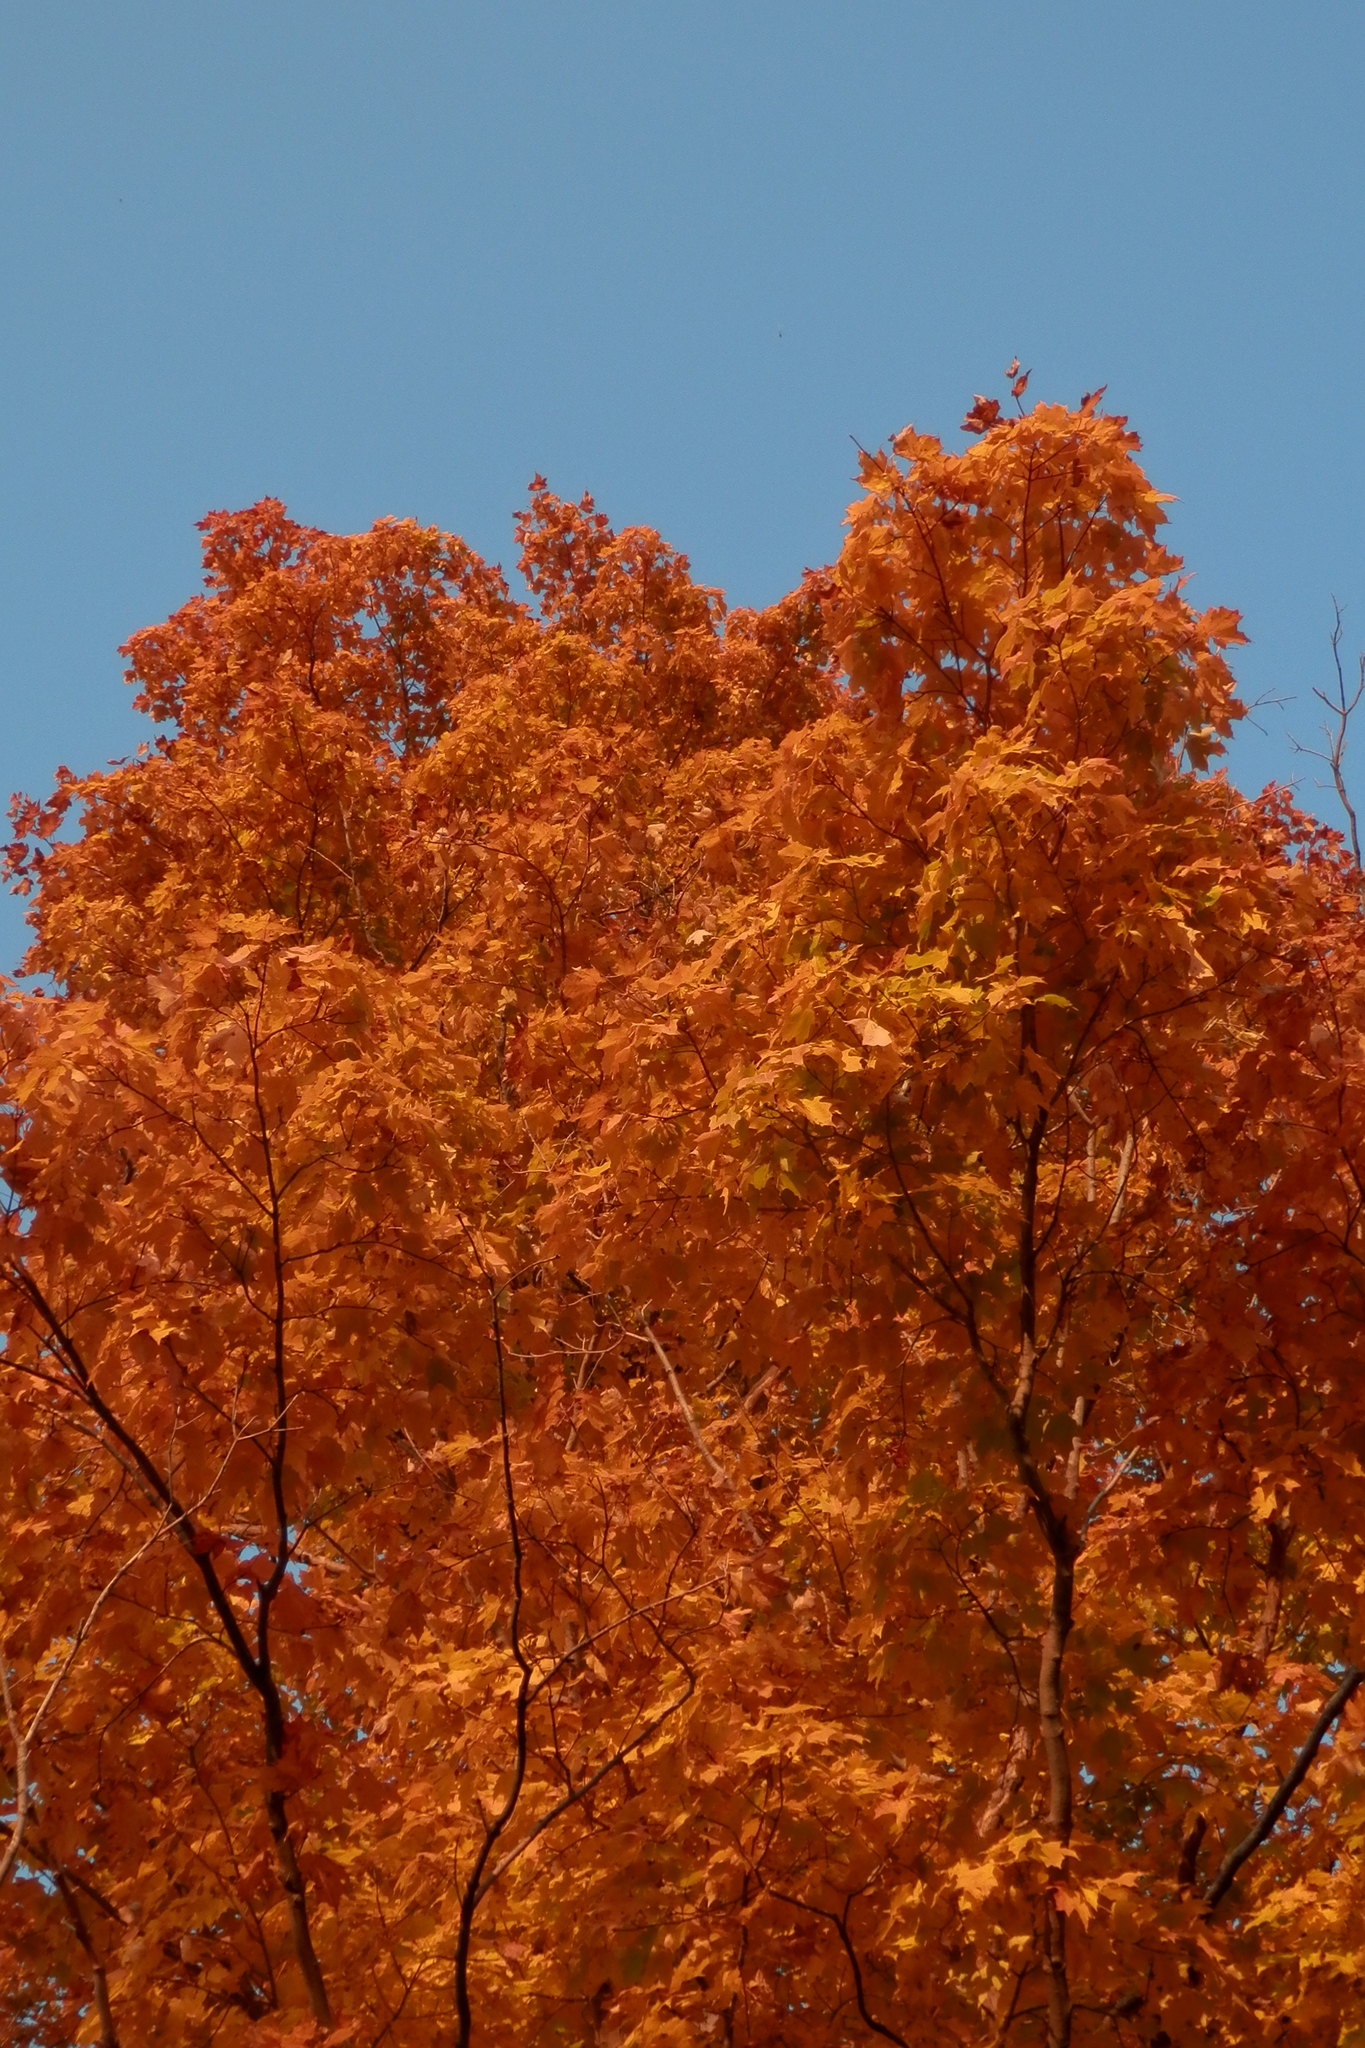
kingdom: Plantae
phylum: Tracheophyta
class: Magnoliopsida
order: Sapindales
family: Sapindaceae
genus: Acer
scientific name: Acer saccharum
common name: Sugar maple
